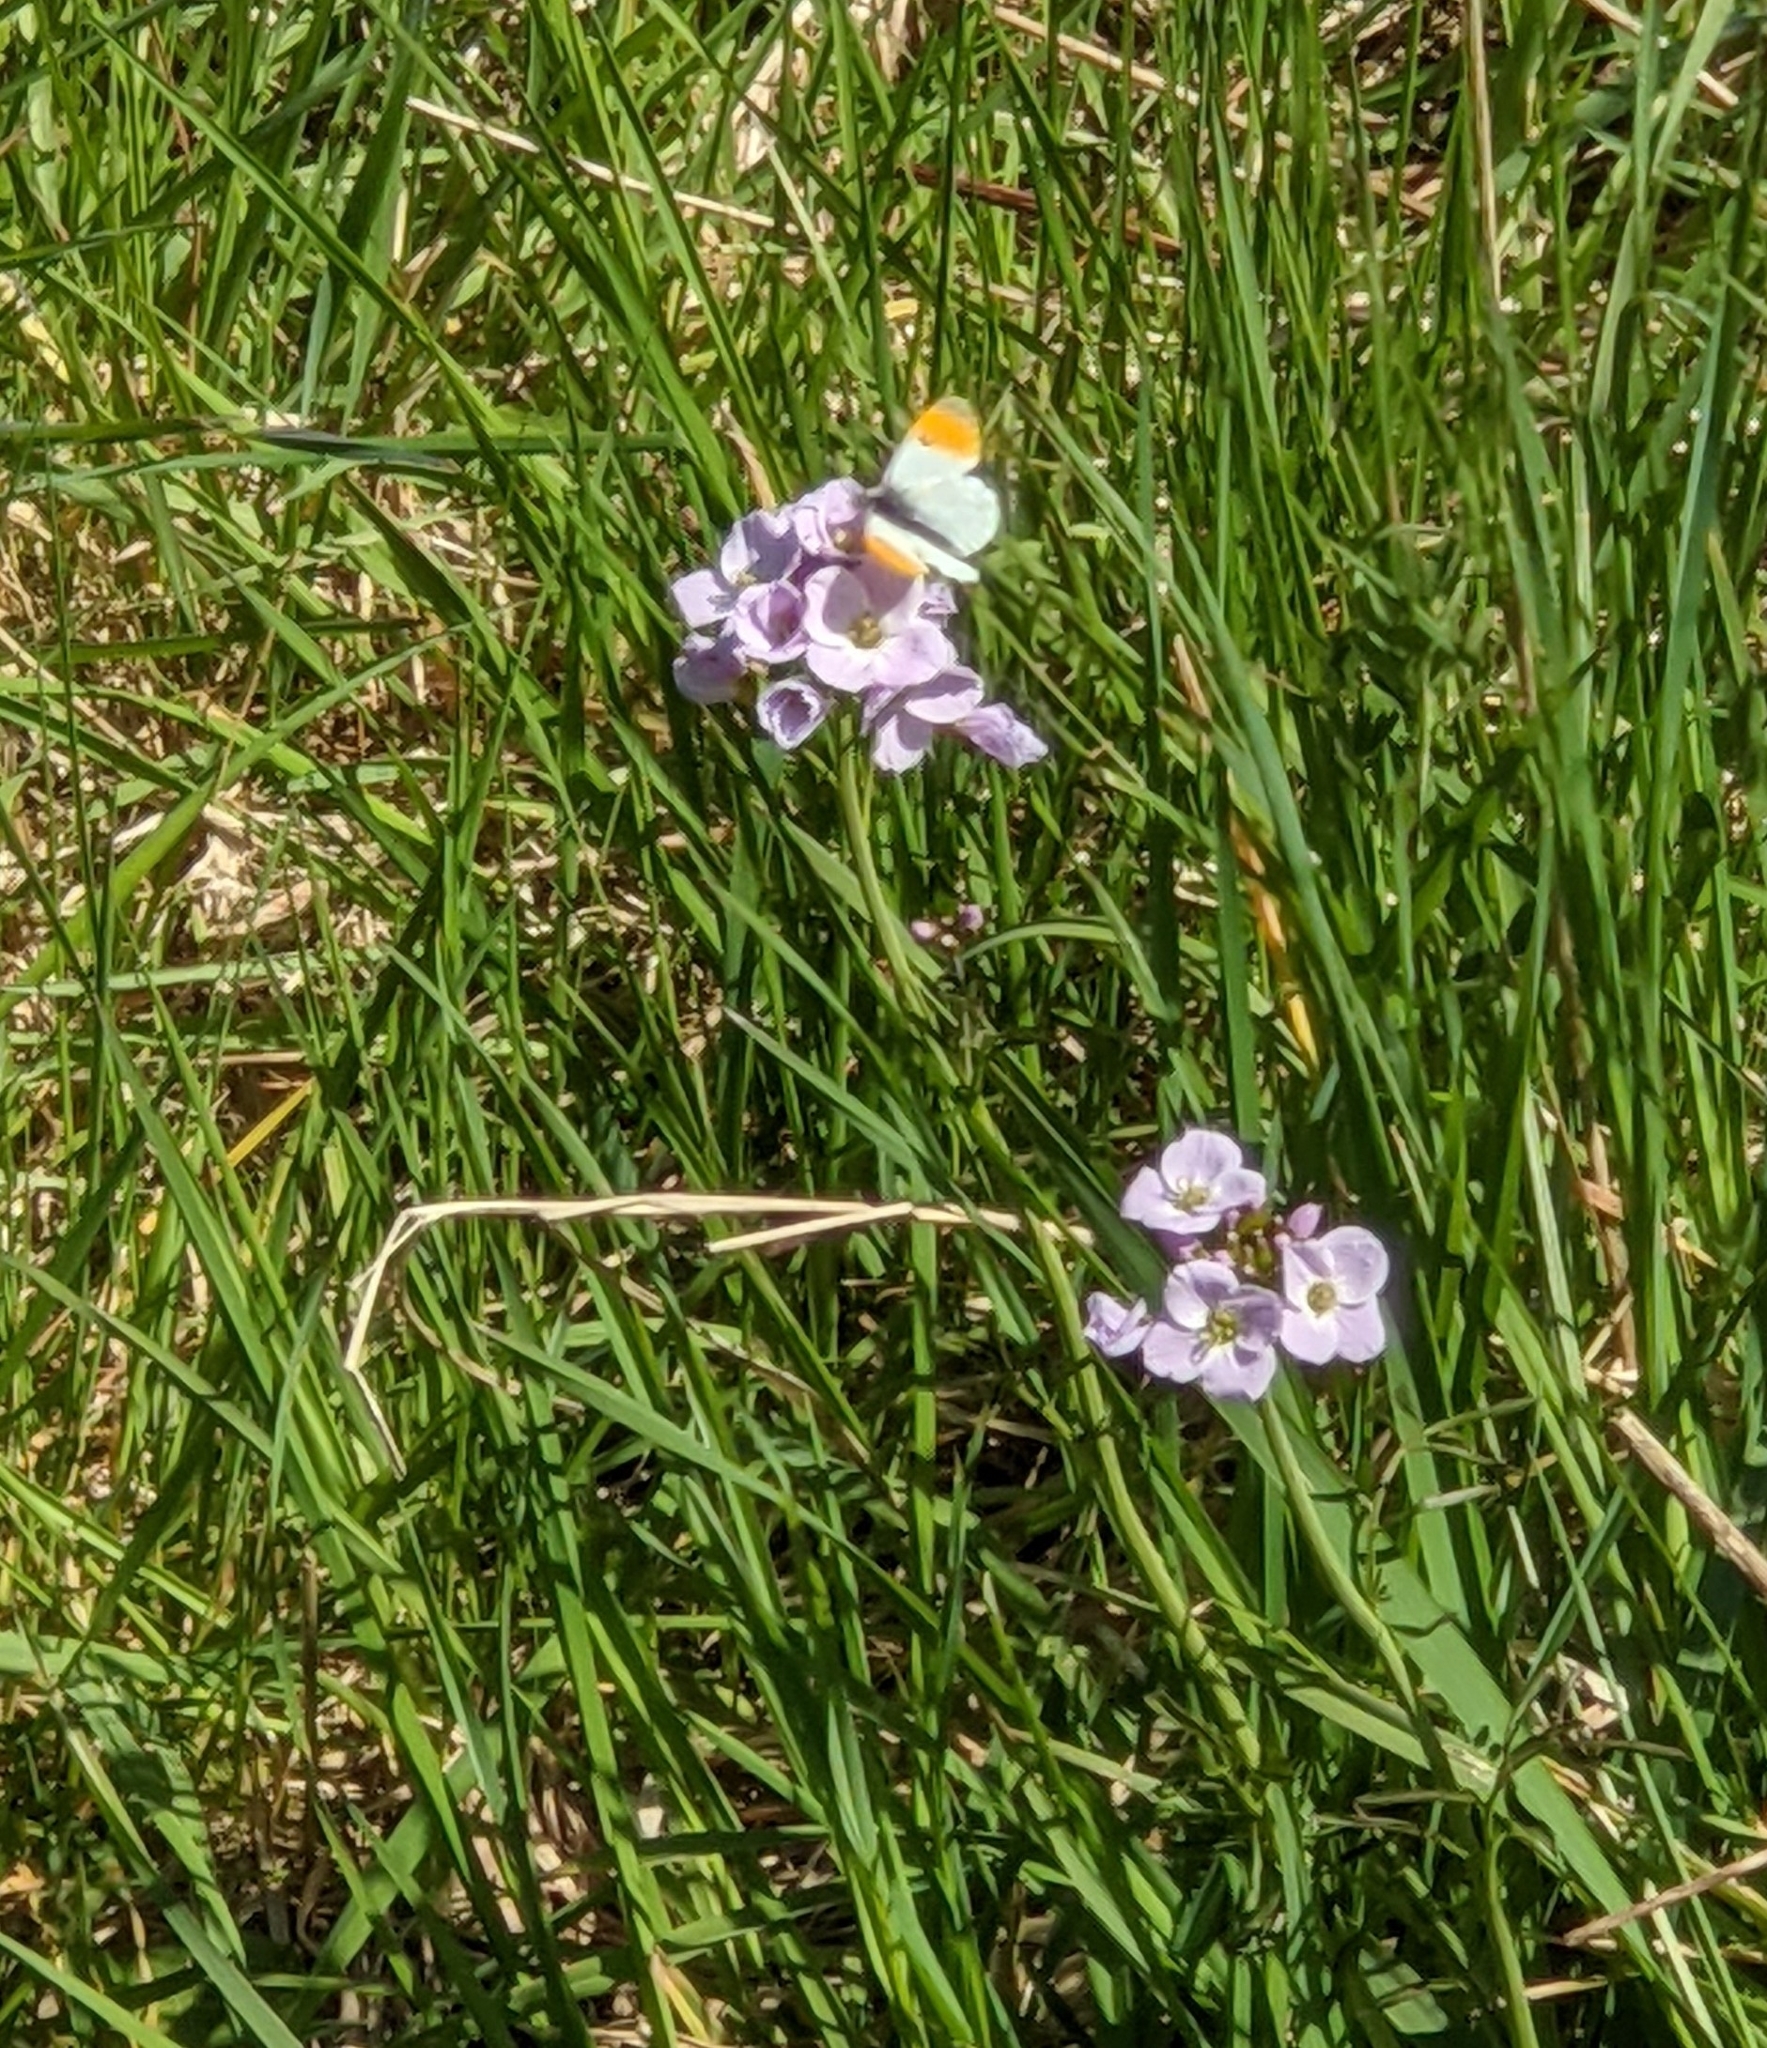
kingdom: Animalia
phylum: Arthropoda
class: Insecta
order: Lepidoptera
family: Pieridae
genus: Anthocharis
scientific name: Anthocharis cardamines
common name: Orange-tip
